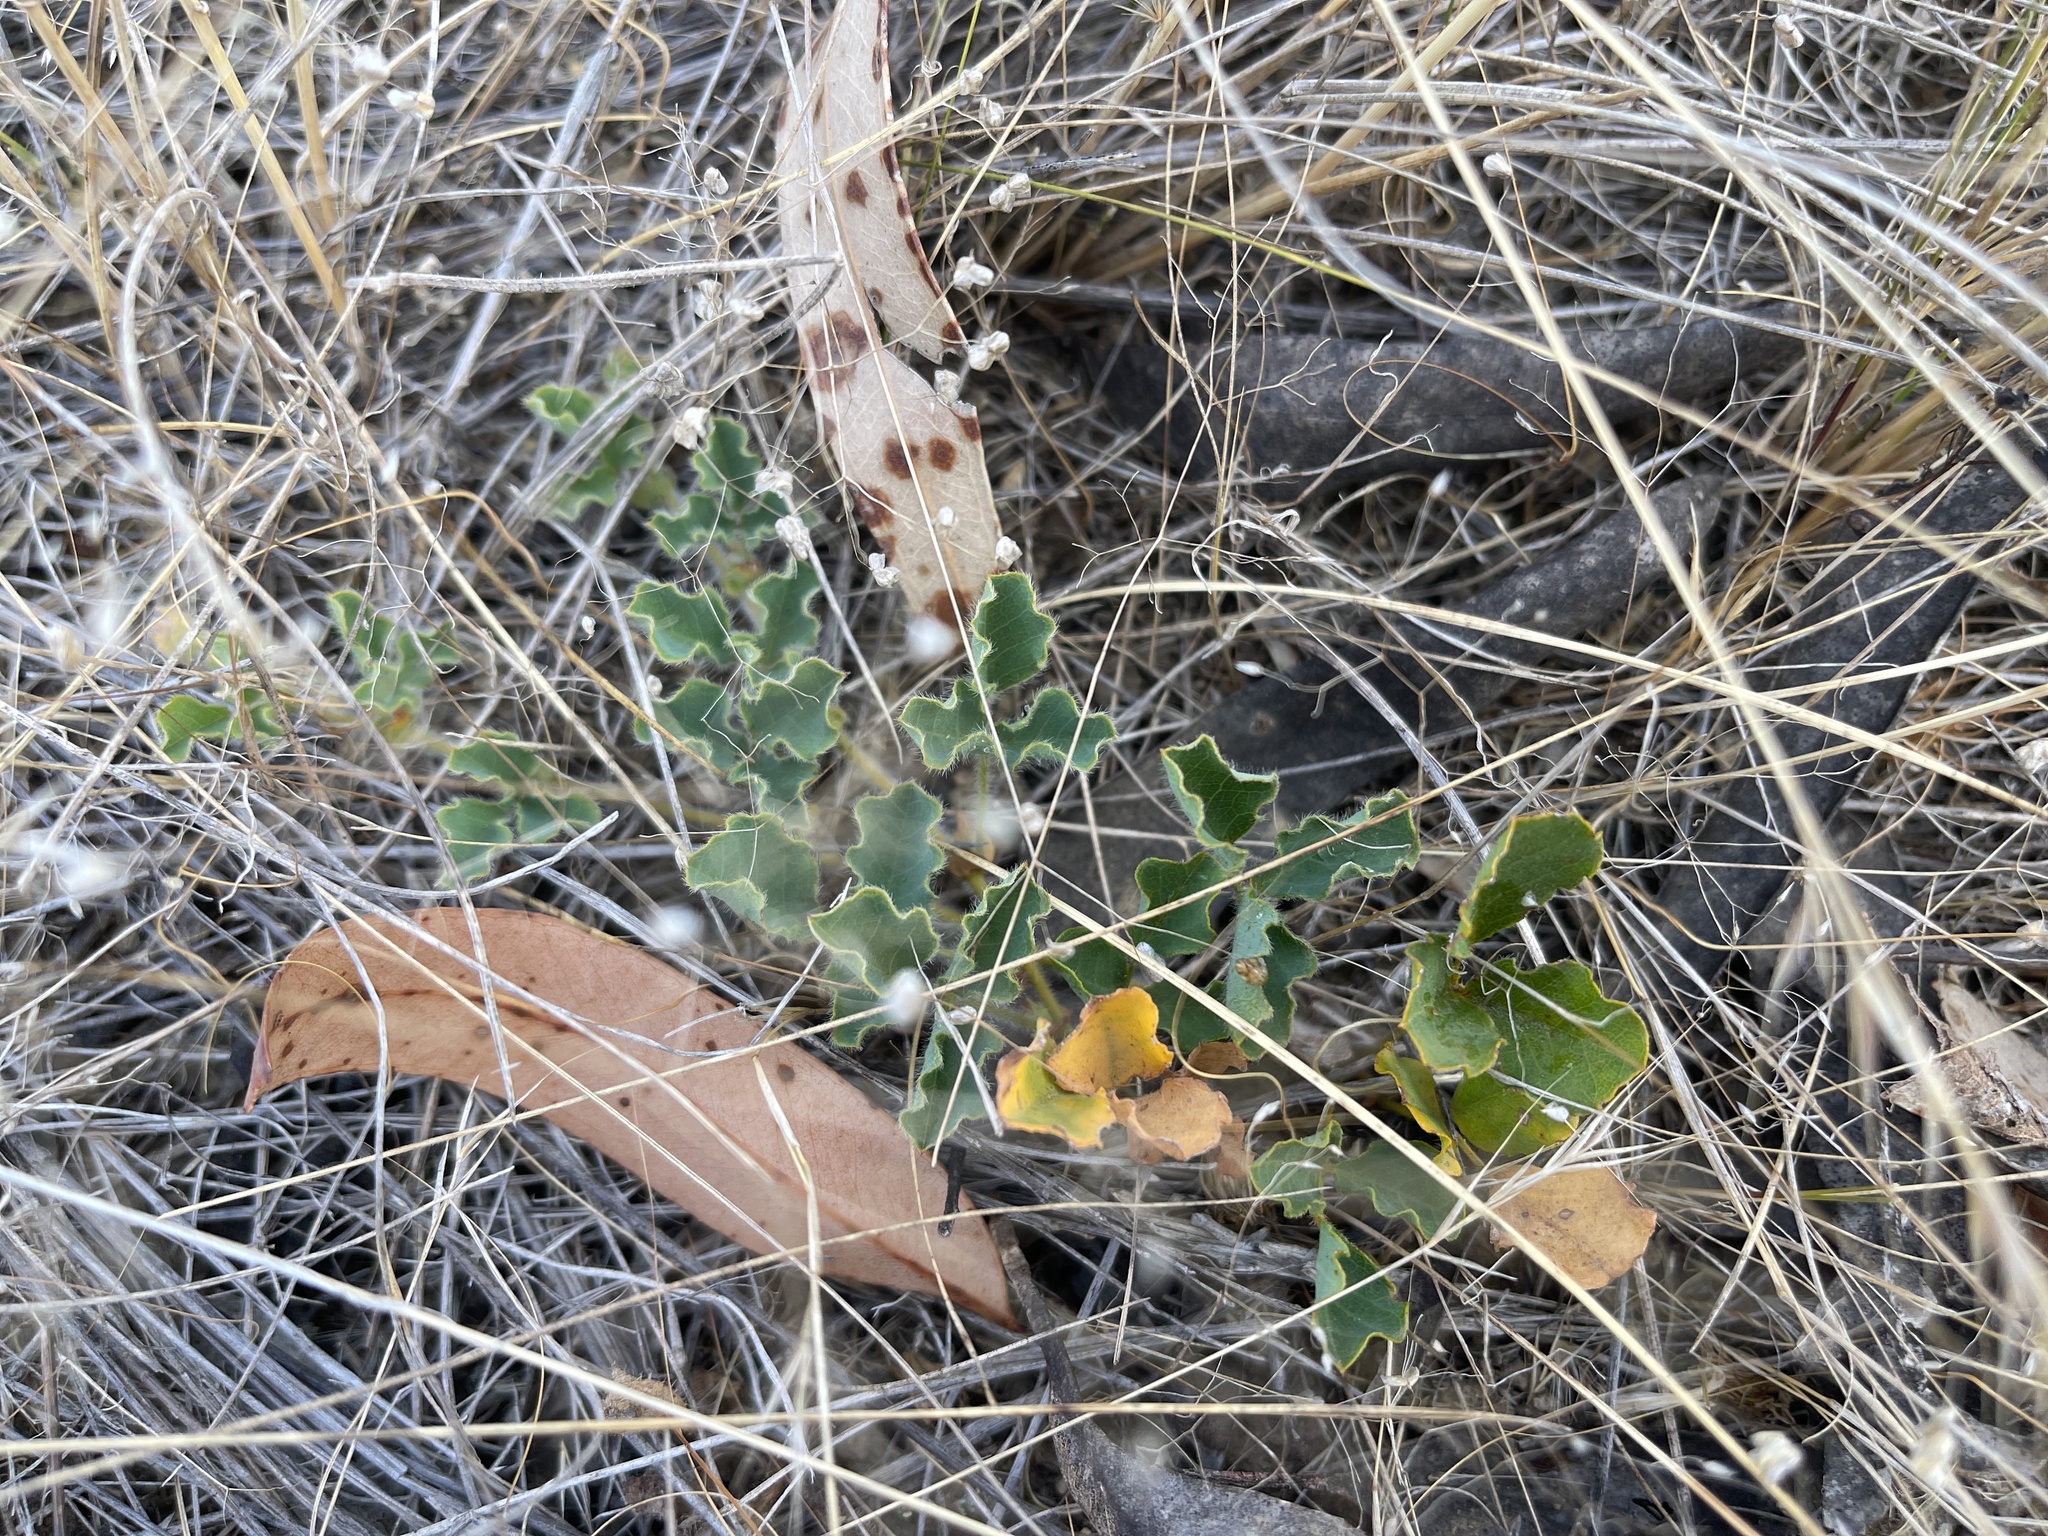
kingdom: Plantae
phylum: Tracheophyta
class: Magnoliopsida
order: Fabales
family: Fabaceae
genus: Kennedia
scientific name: Kennedia prostrata
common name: Running-postman
